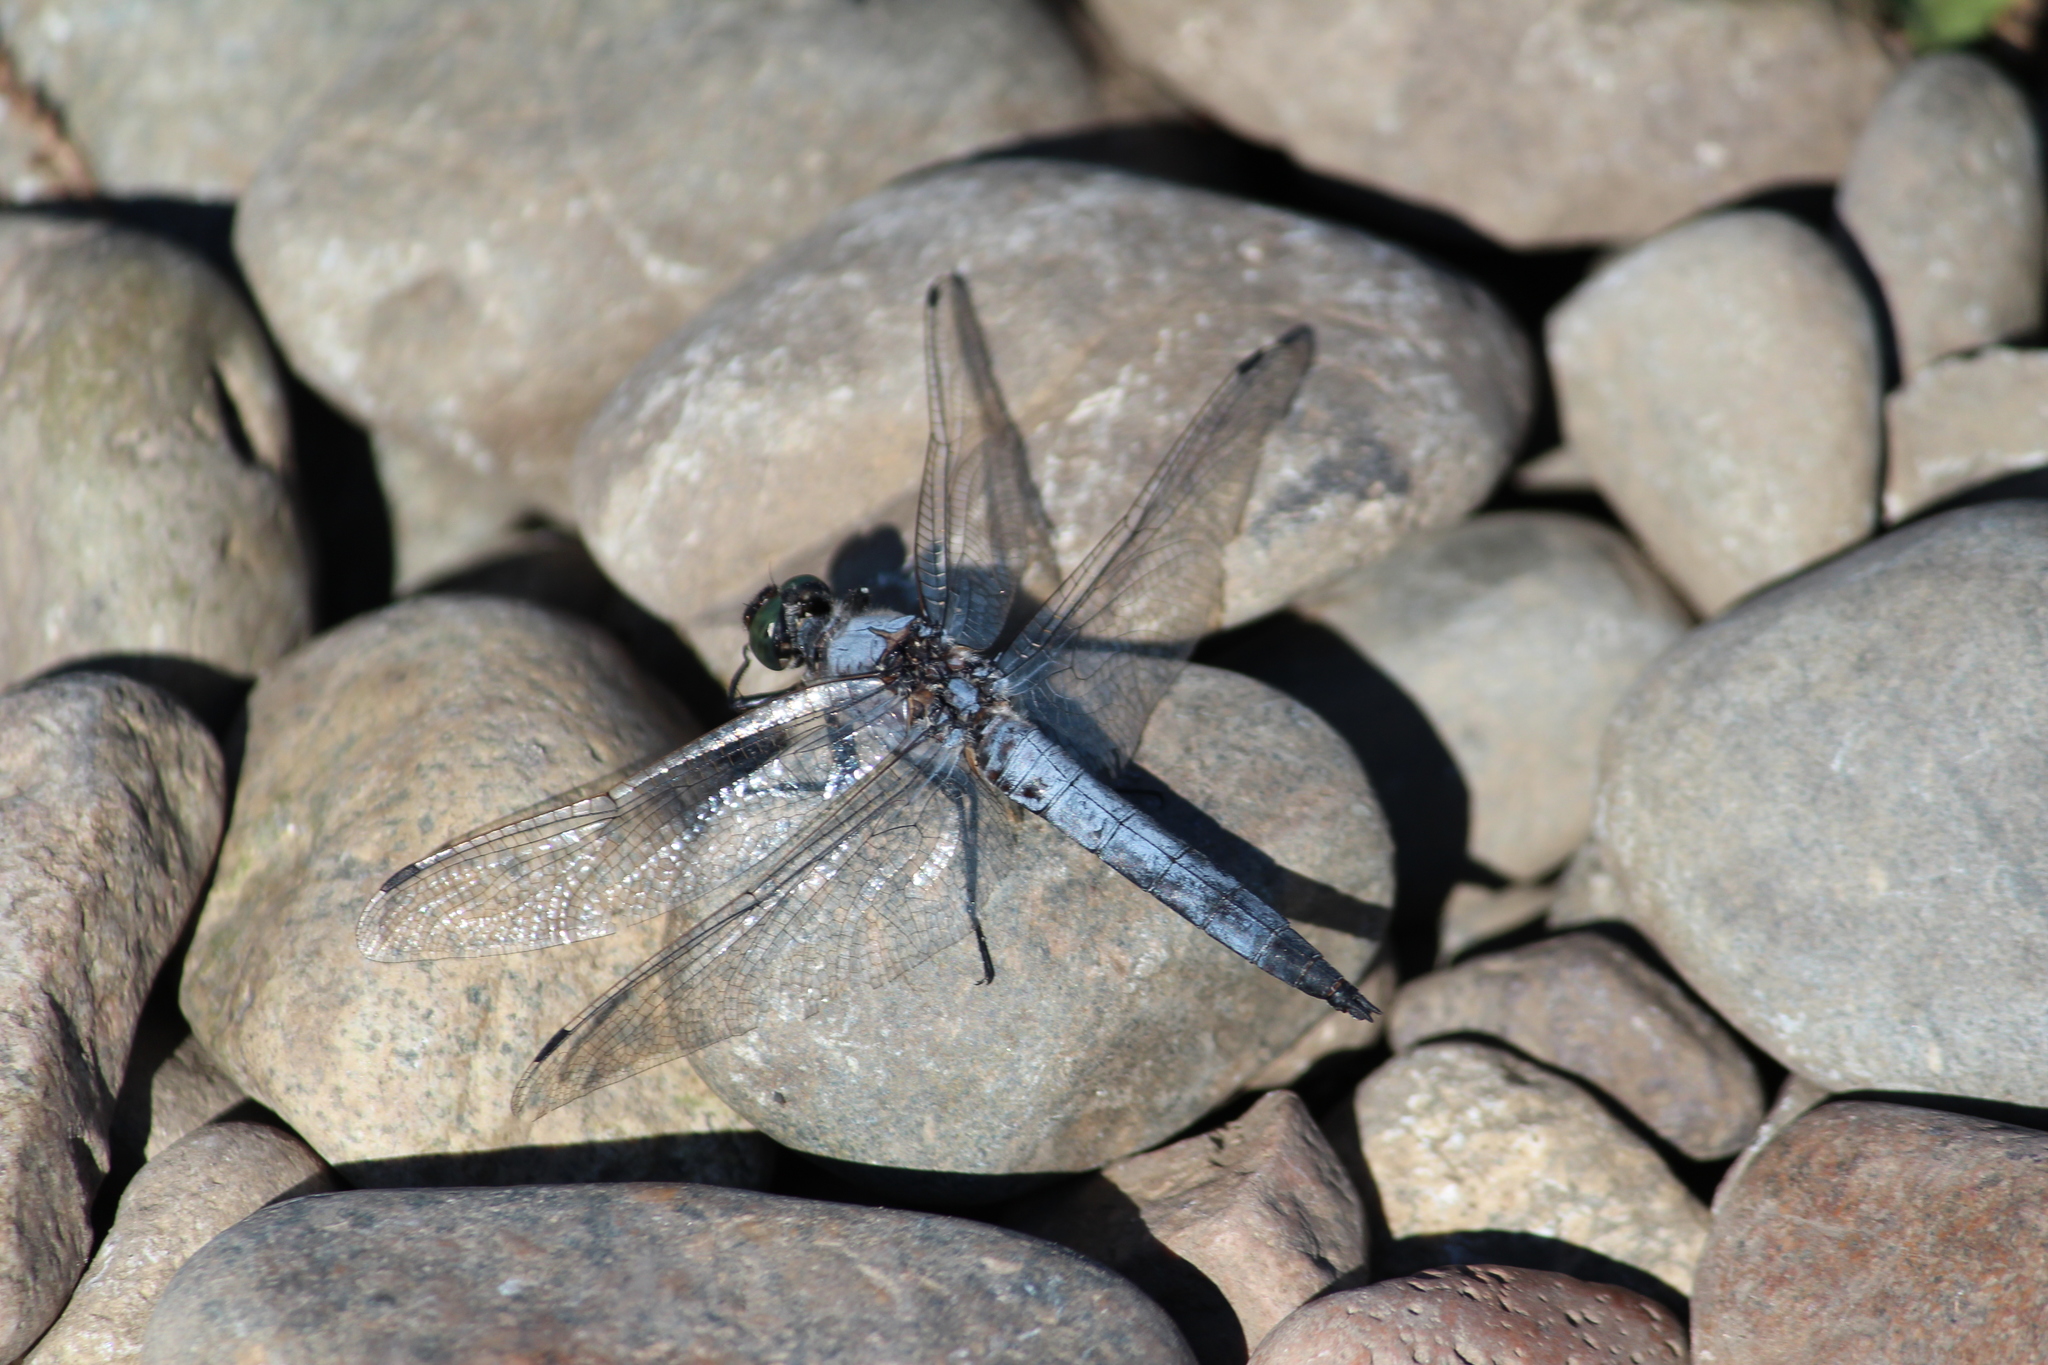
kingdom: Animalia
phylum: Arthropoda
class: Insecta
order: Odonata
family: Libellulidae
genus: Orthetrum
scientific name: Orthetrum cancellatum
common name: Black-tailed skimmer
